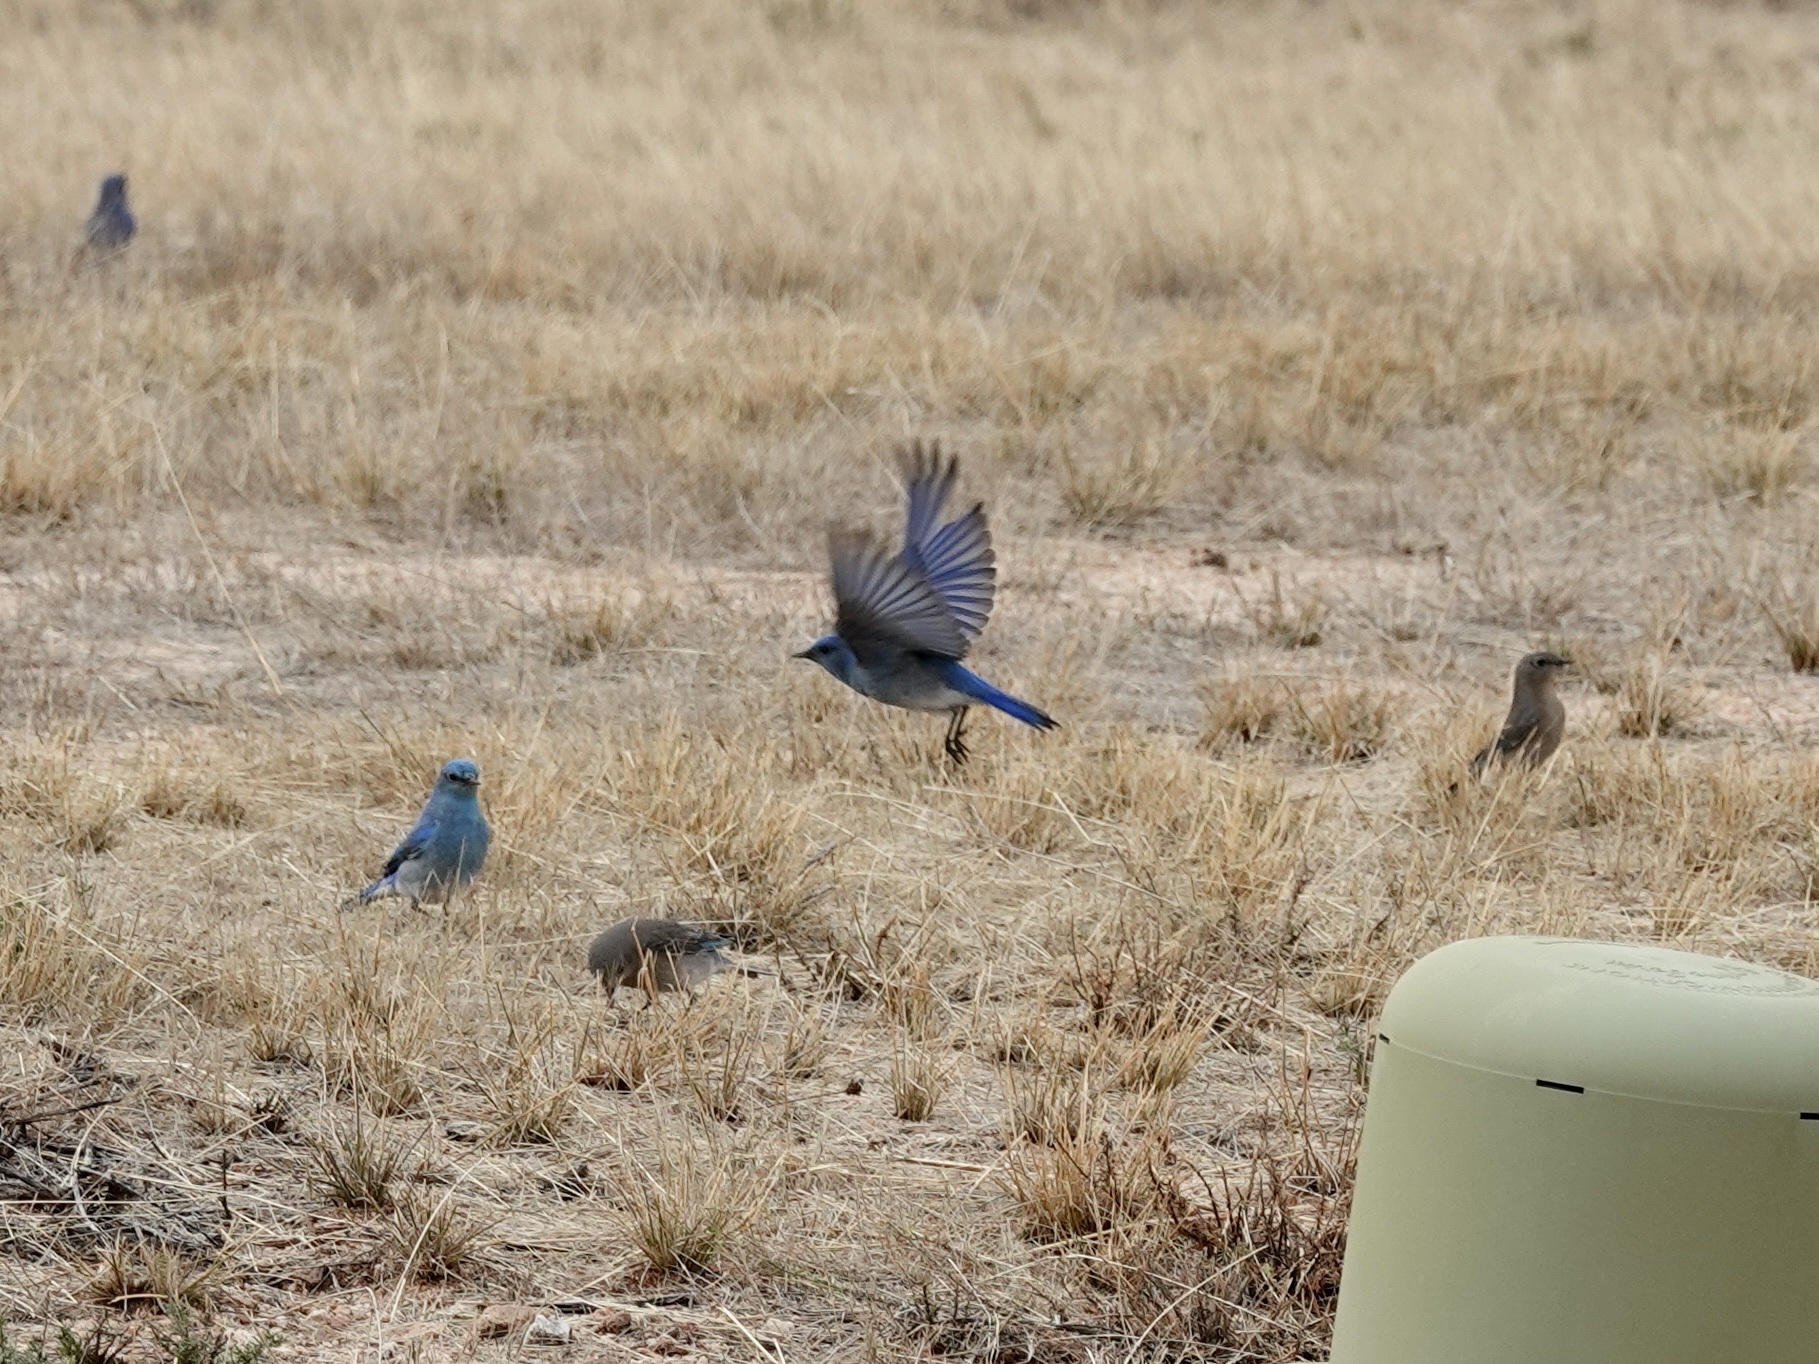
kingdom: Animalia
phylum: Chordata
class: Aves
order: Passeriformes
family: Turdidae
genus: Sialia
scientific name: Sialia currucoides
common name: Mountain bluebird
